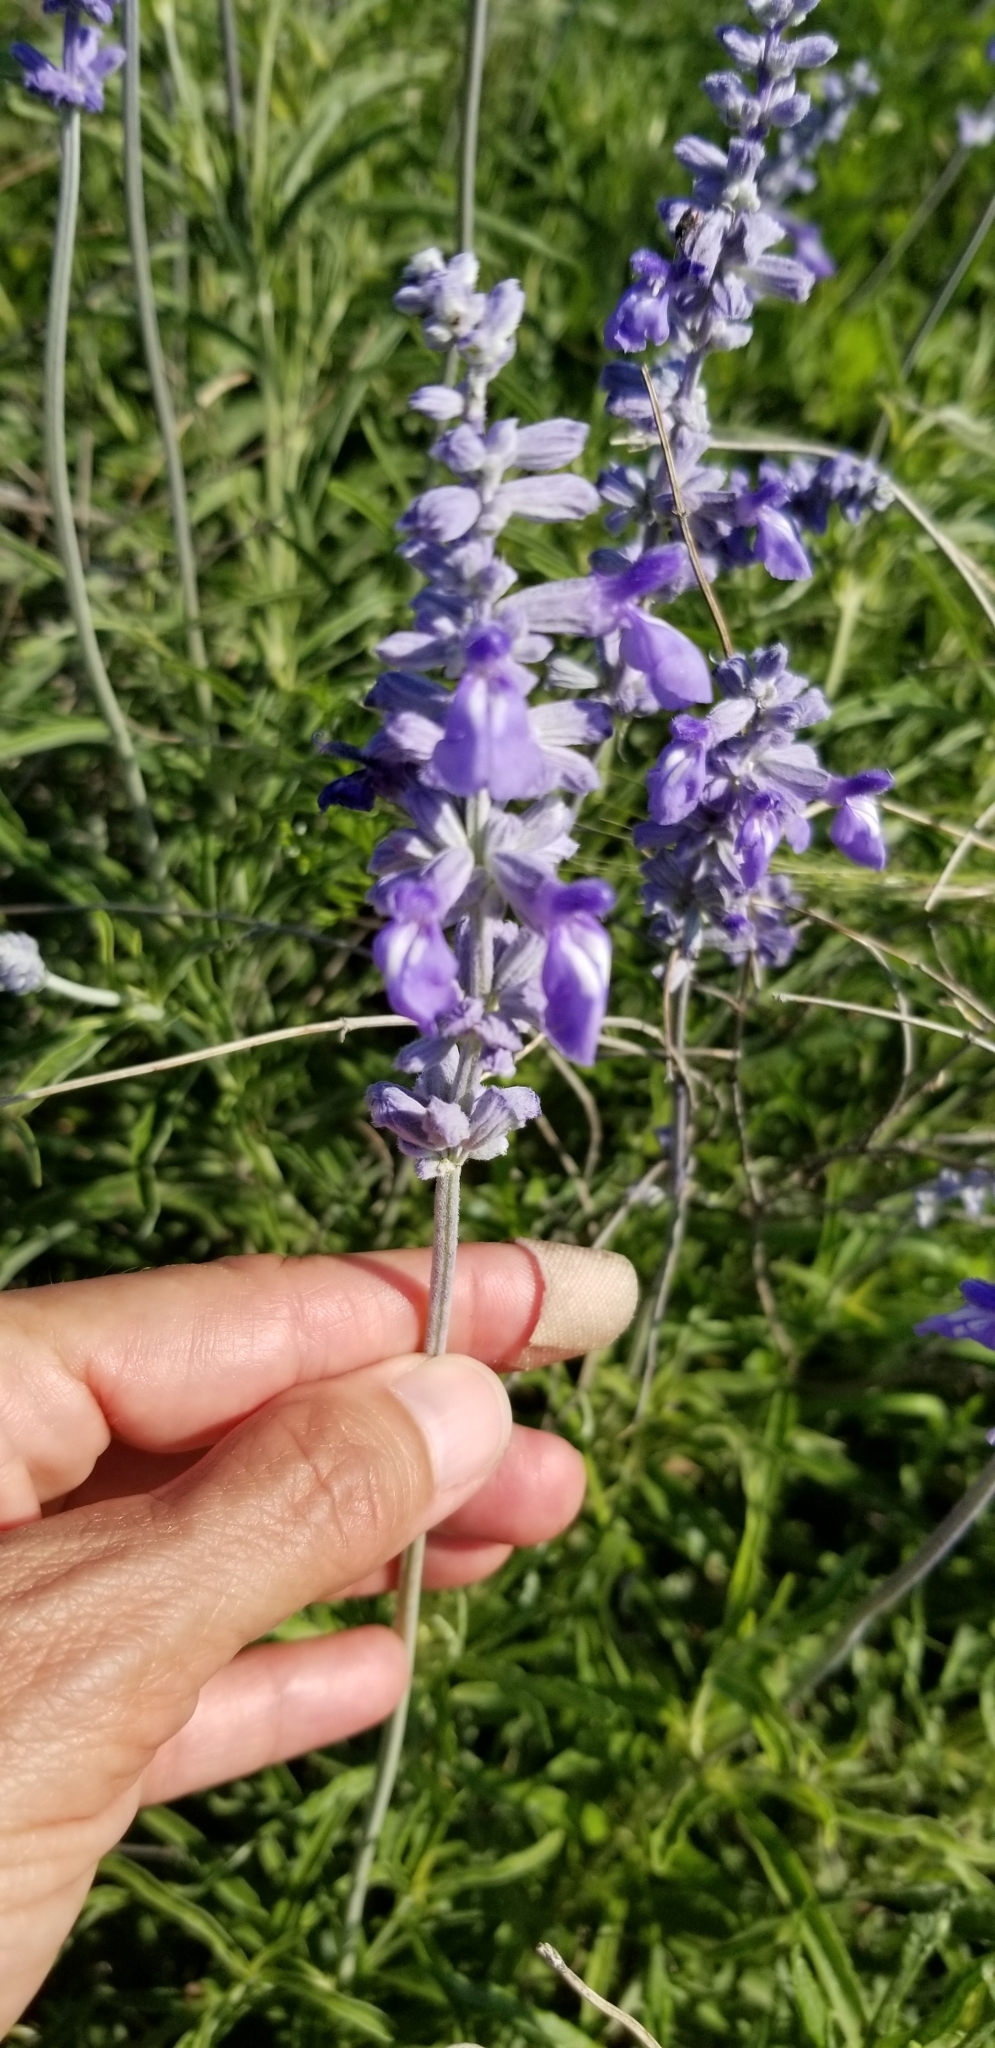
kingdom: Plantae
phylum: Tracheophyta
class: Magnoliopsida
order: Lamiales
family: Lamiaceae
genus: Salvia
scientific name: Salvia farinacea
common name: Mealy sage
